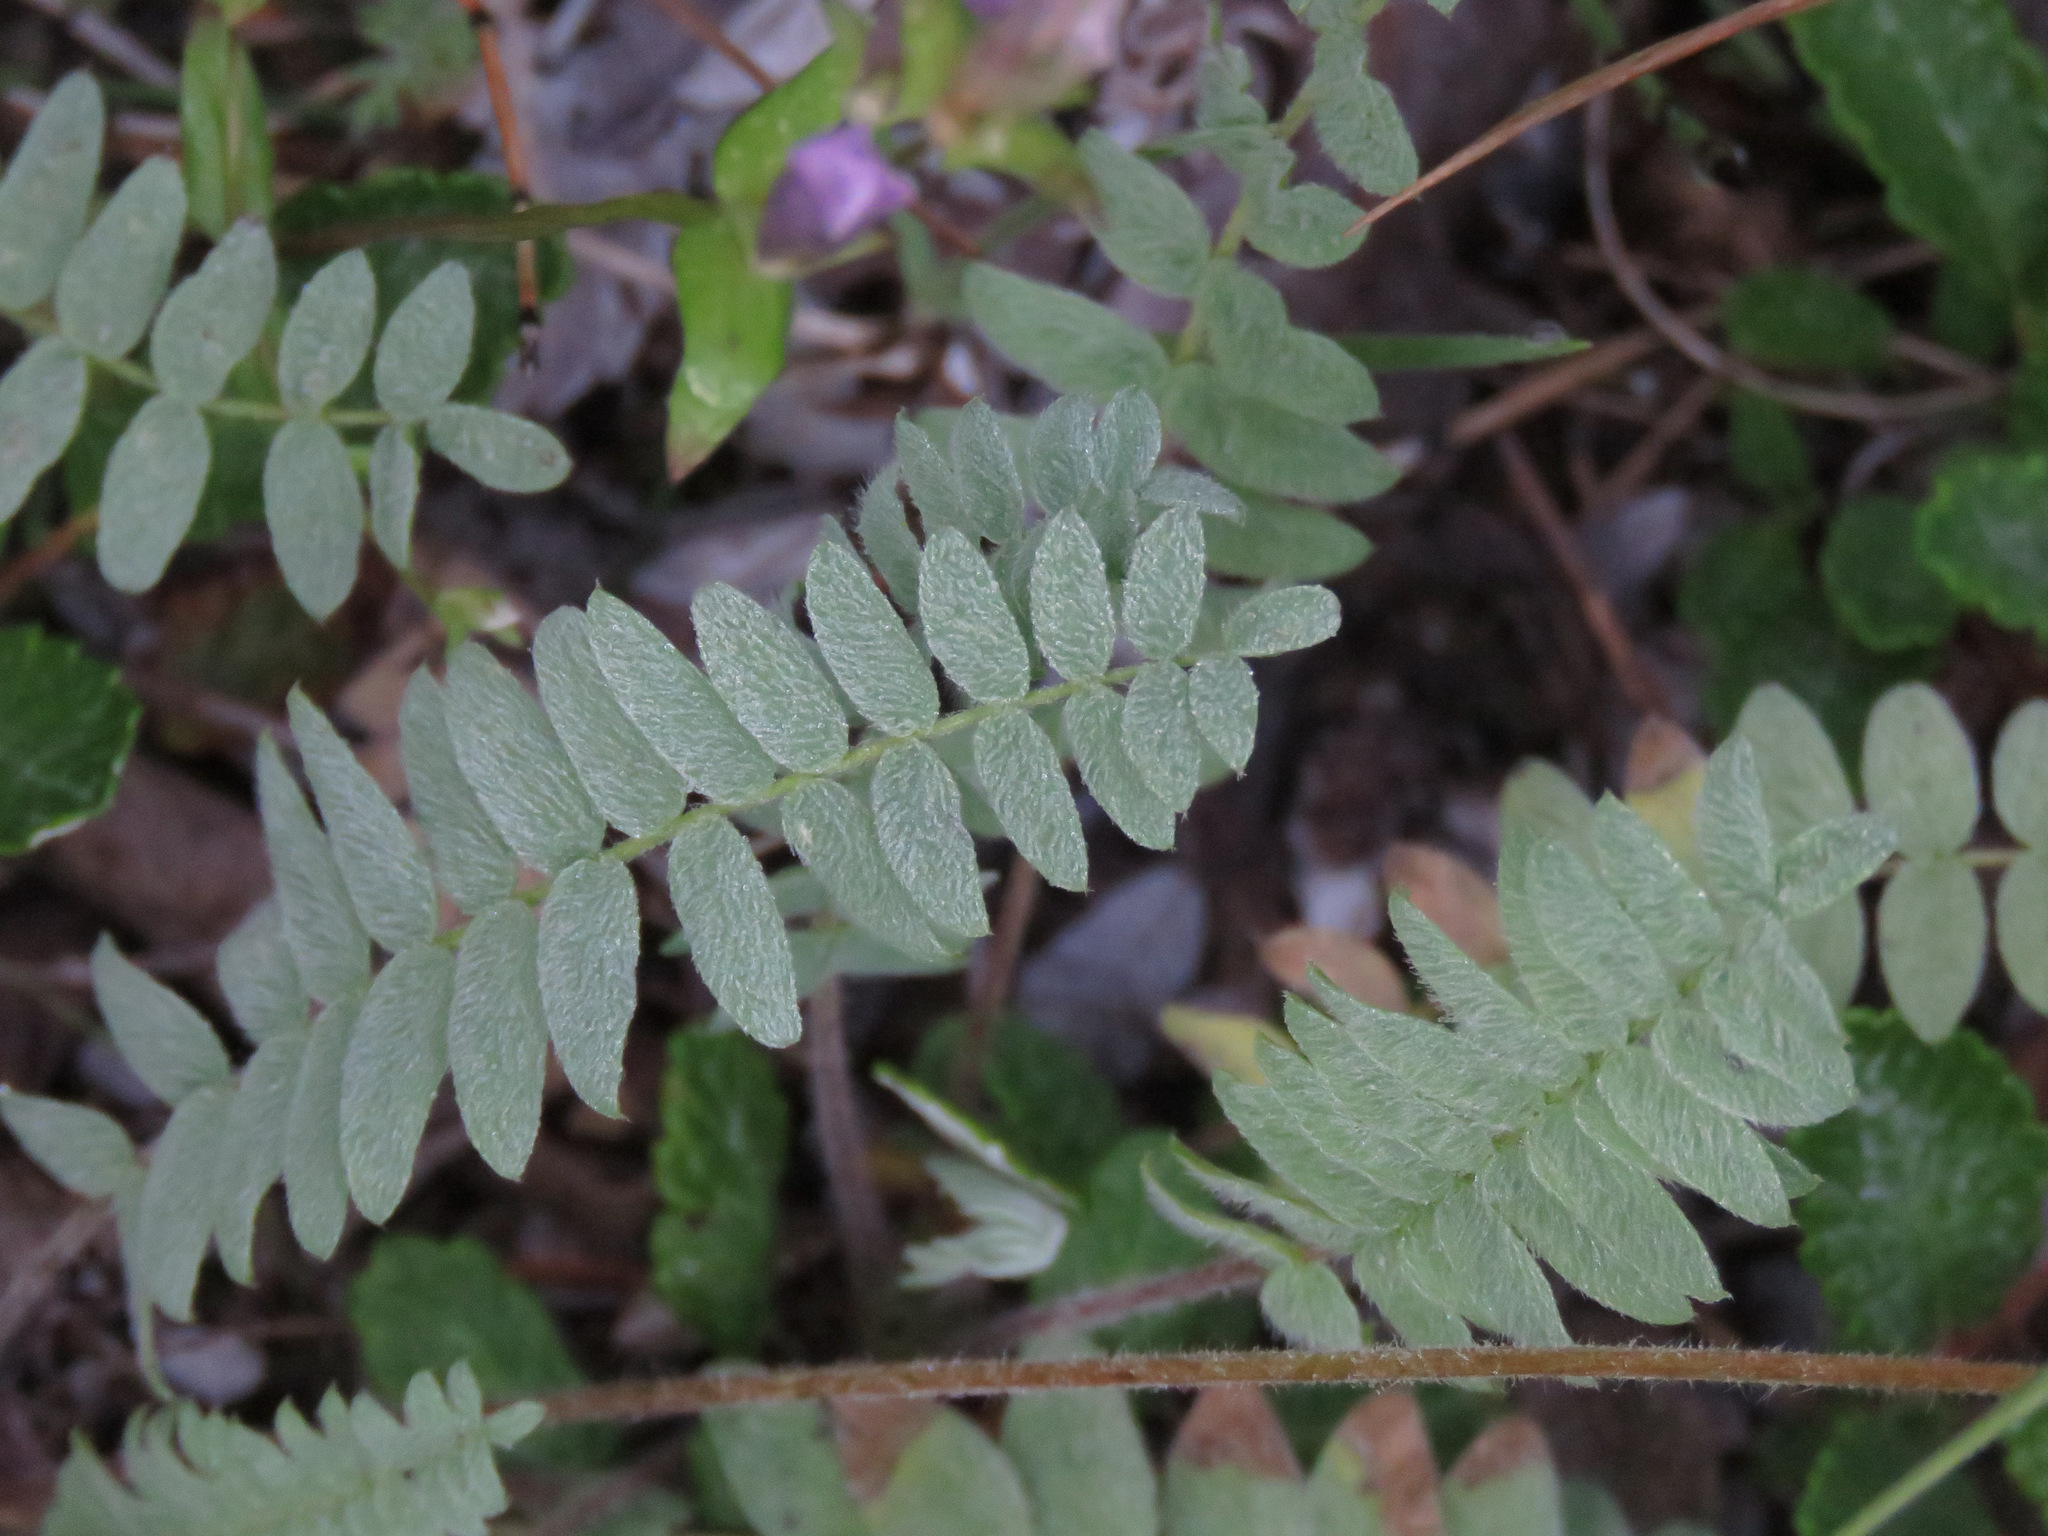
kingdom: Plantae
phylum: Tracheophyta
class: Magnoliopsida
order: Fabales
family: Fabaceae
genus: Oxytropis
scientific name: Oxytropis deflexa
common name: Stemmed oxytrope
